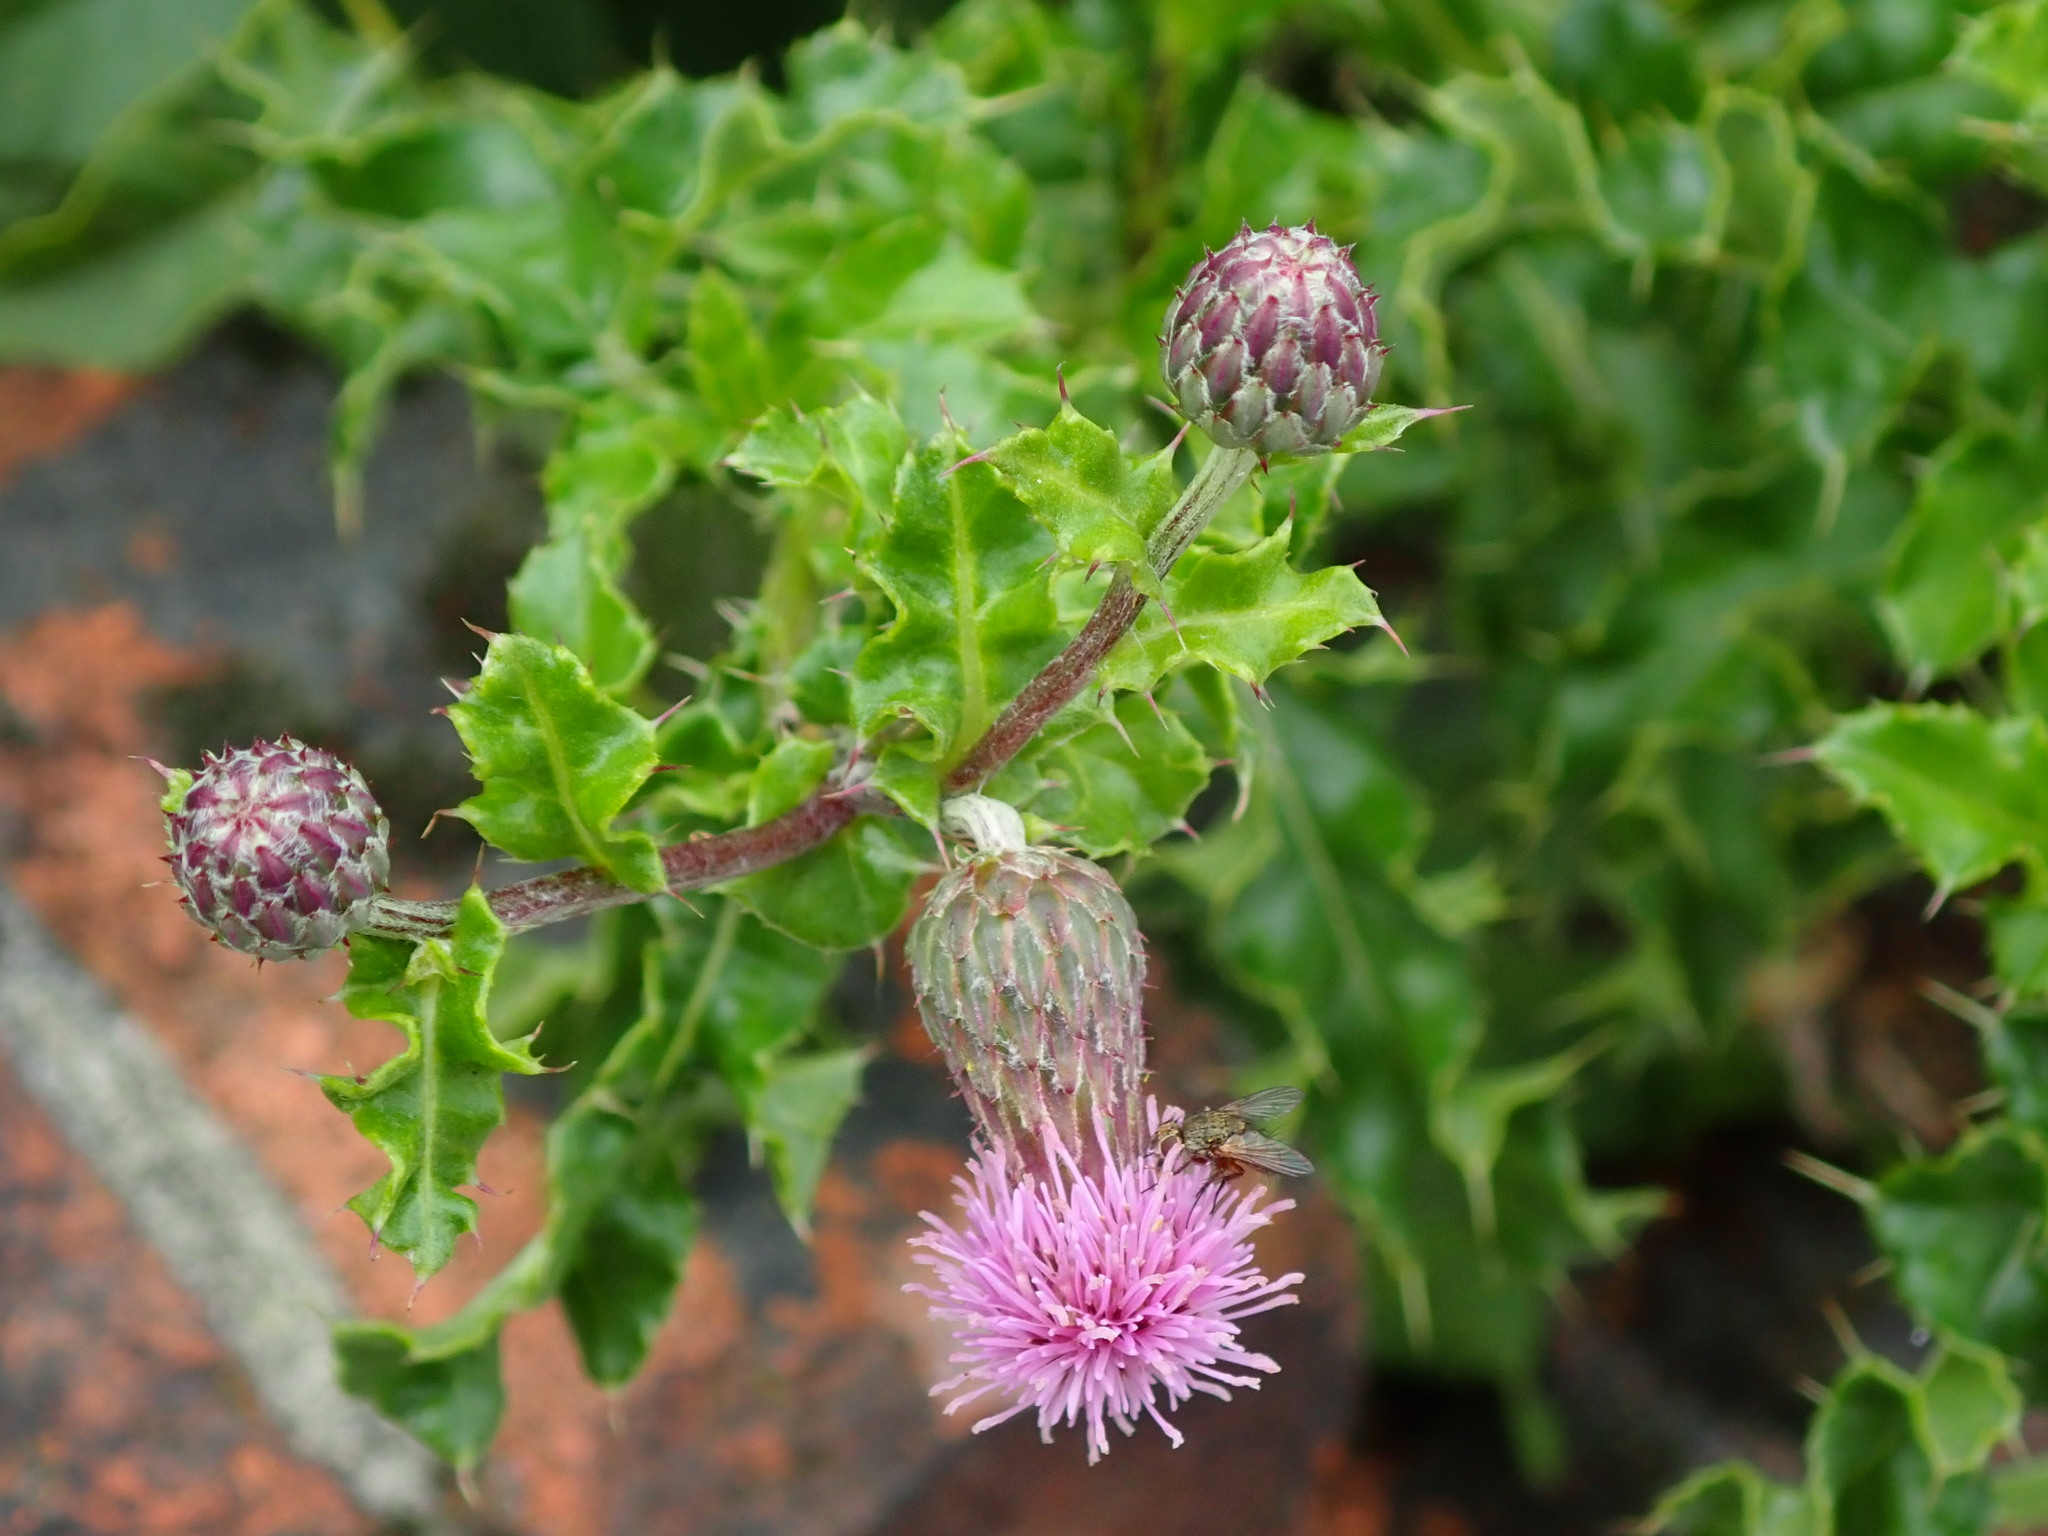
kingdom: Plantae
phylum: Tracheophyta
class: Magnoliopsida
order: Asterales
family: Asteraceae
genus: Cirsium
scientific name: Cirsium arvense
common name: Creeping thistle
